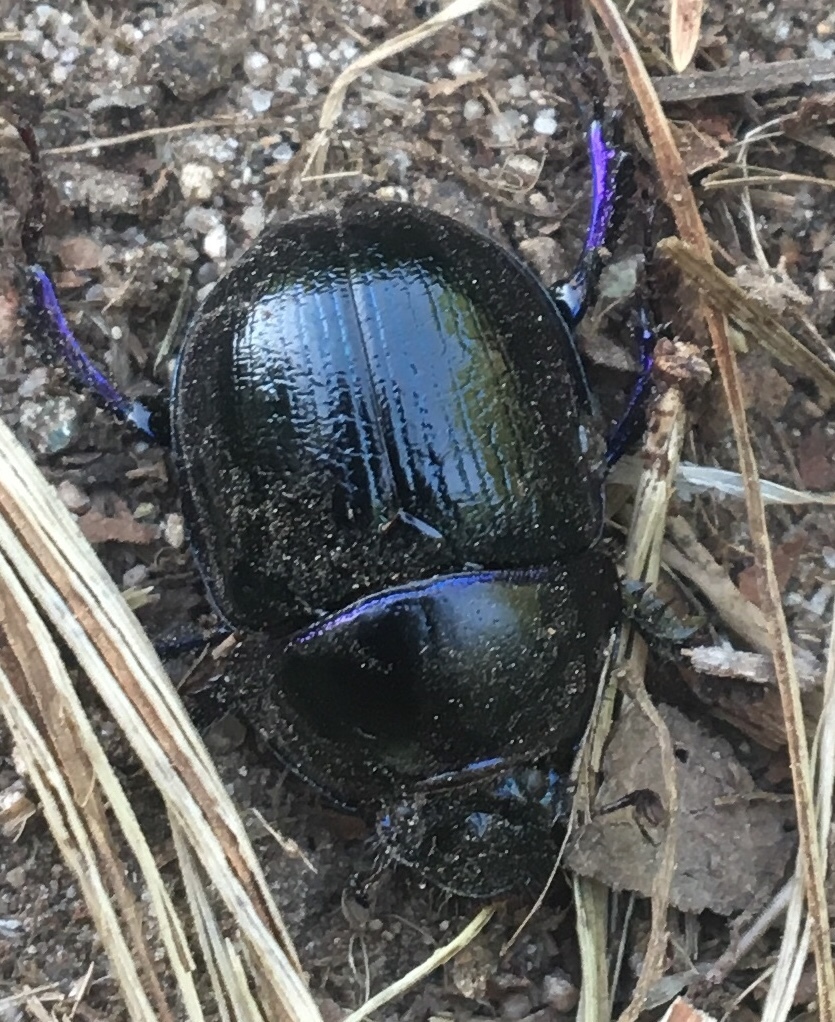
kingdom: Animalia
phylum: Arthropoda
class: Insecta
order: Coleoptera
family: Geotrupidae
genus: Anoplotrupes
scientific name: Anoplotrupes stercorosus
